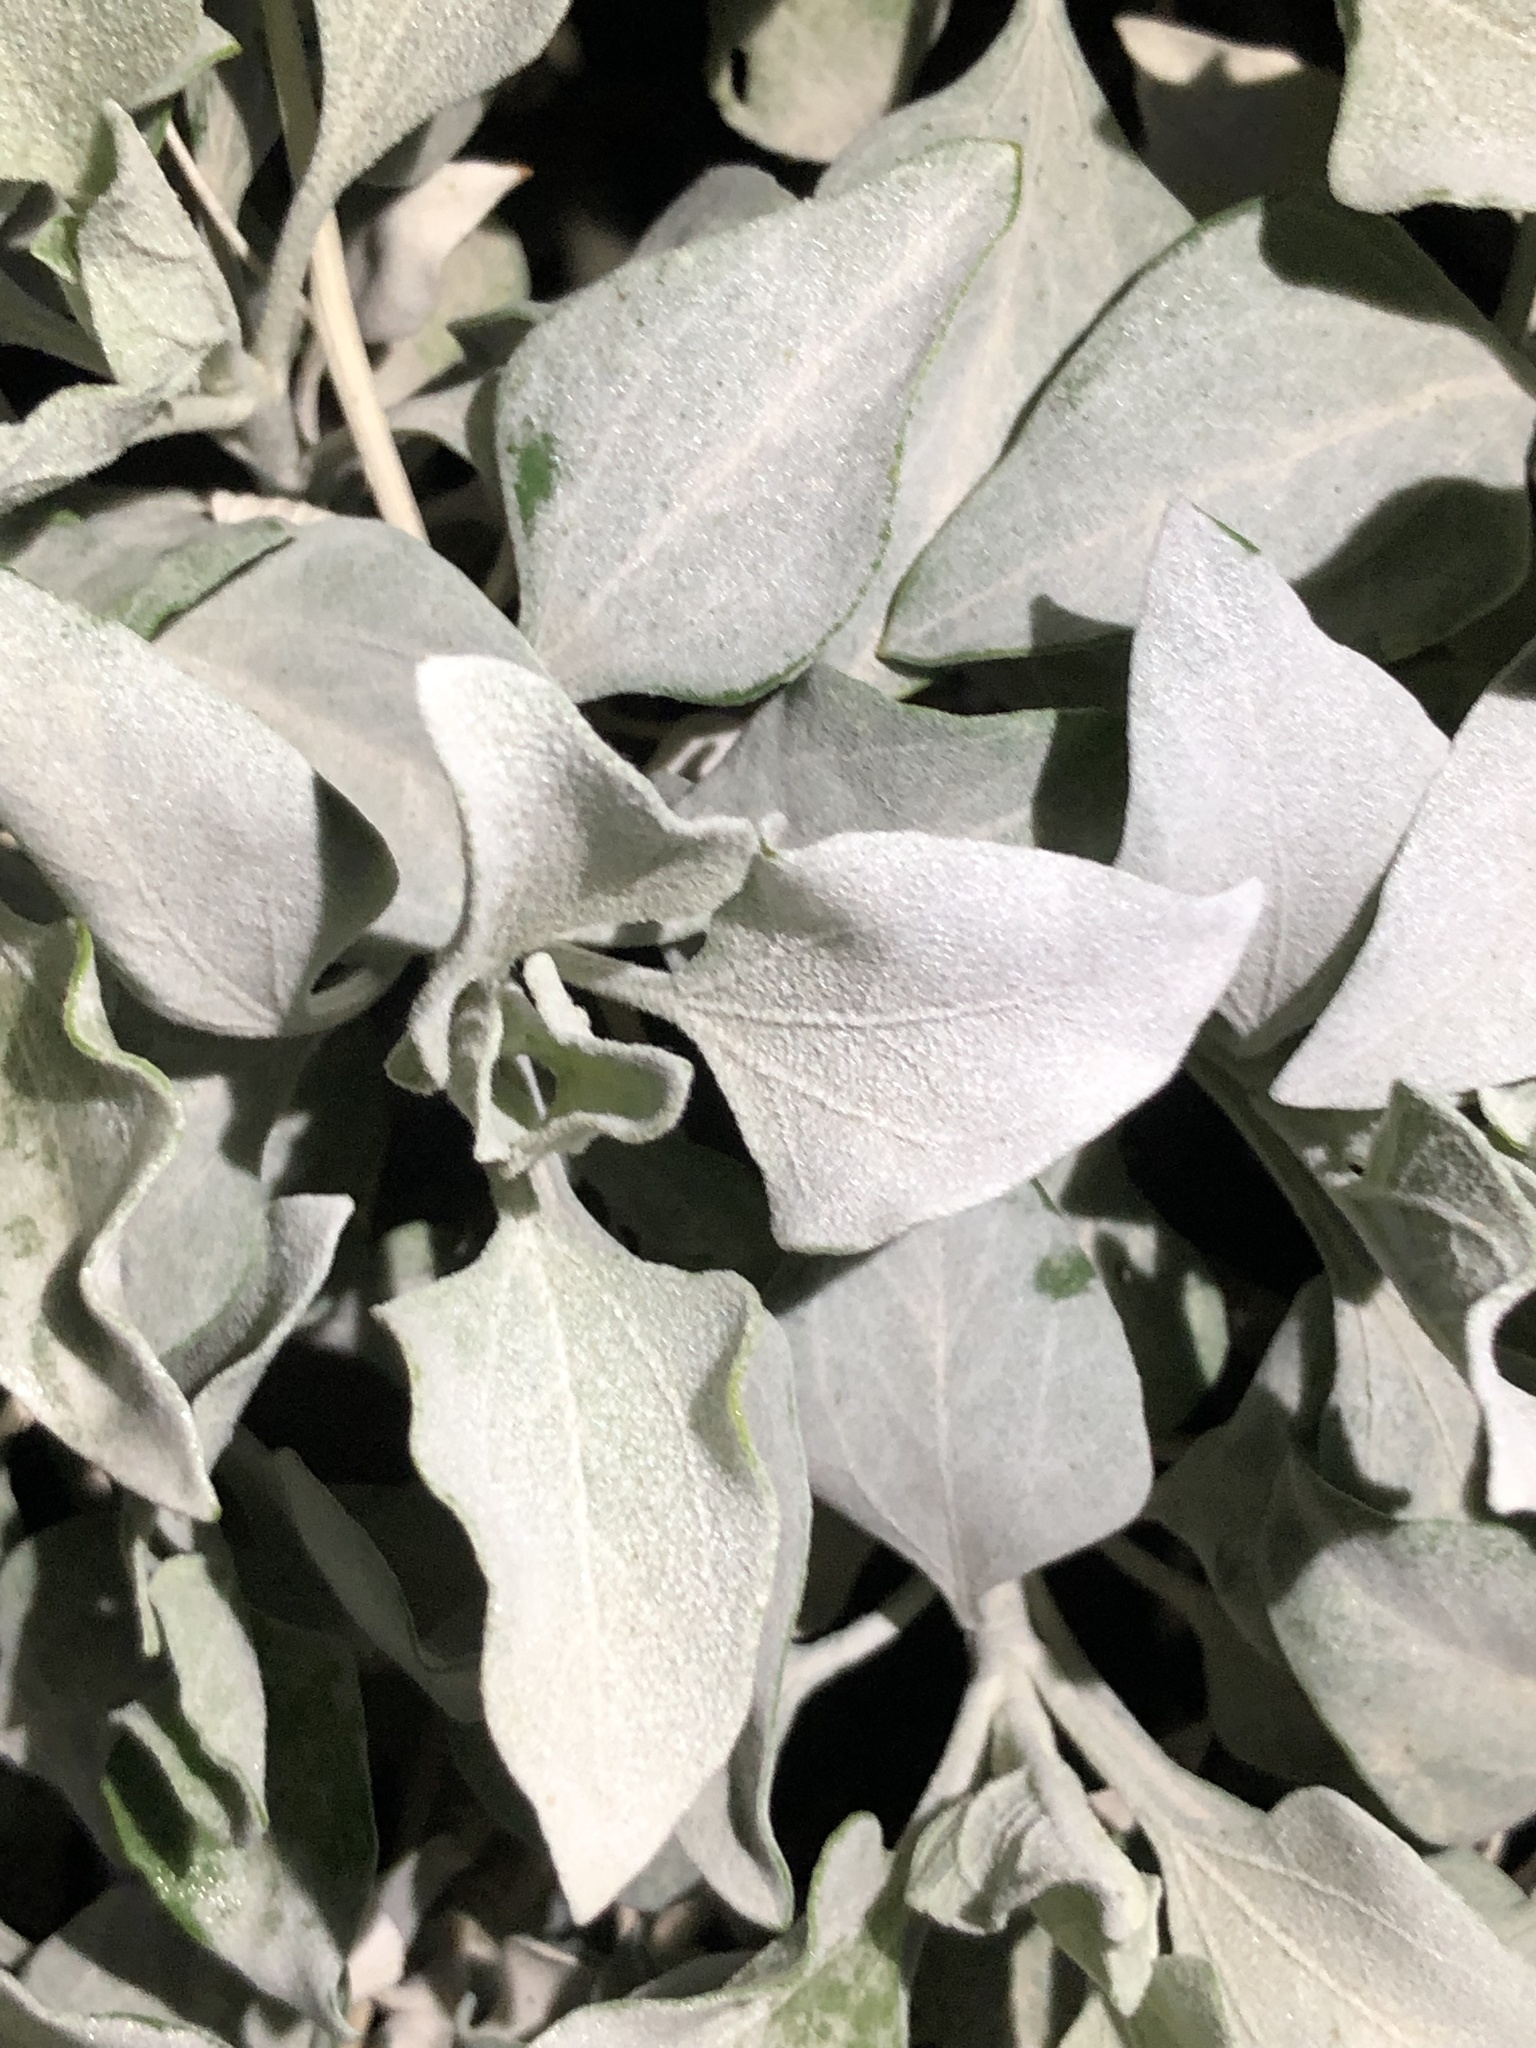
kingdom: Plantae
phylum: Tracheophyta
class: Magnoliopsida
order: Asterales
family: Asteraceae
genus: Encelia
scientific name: Encelia farinosa
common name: Brittlebush
